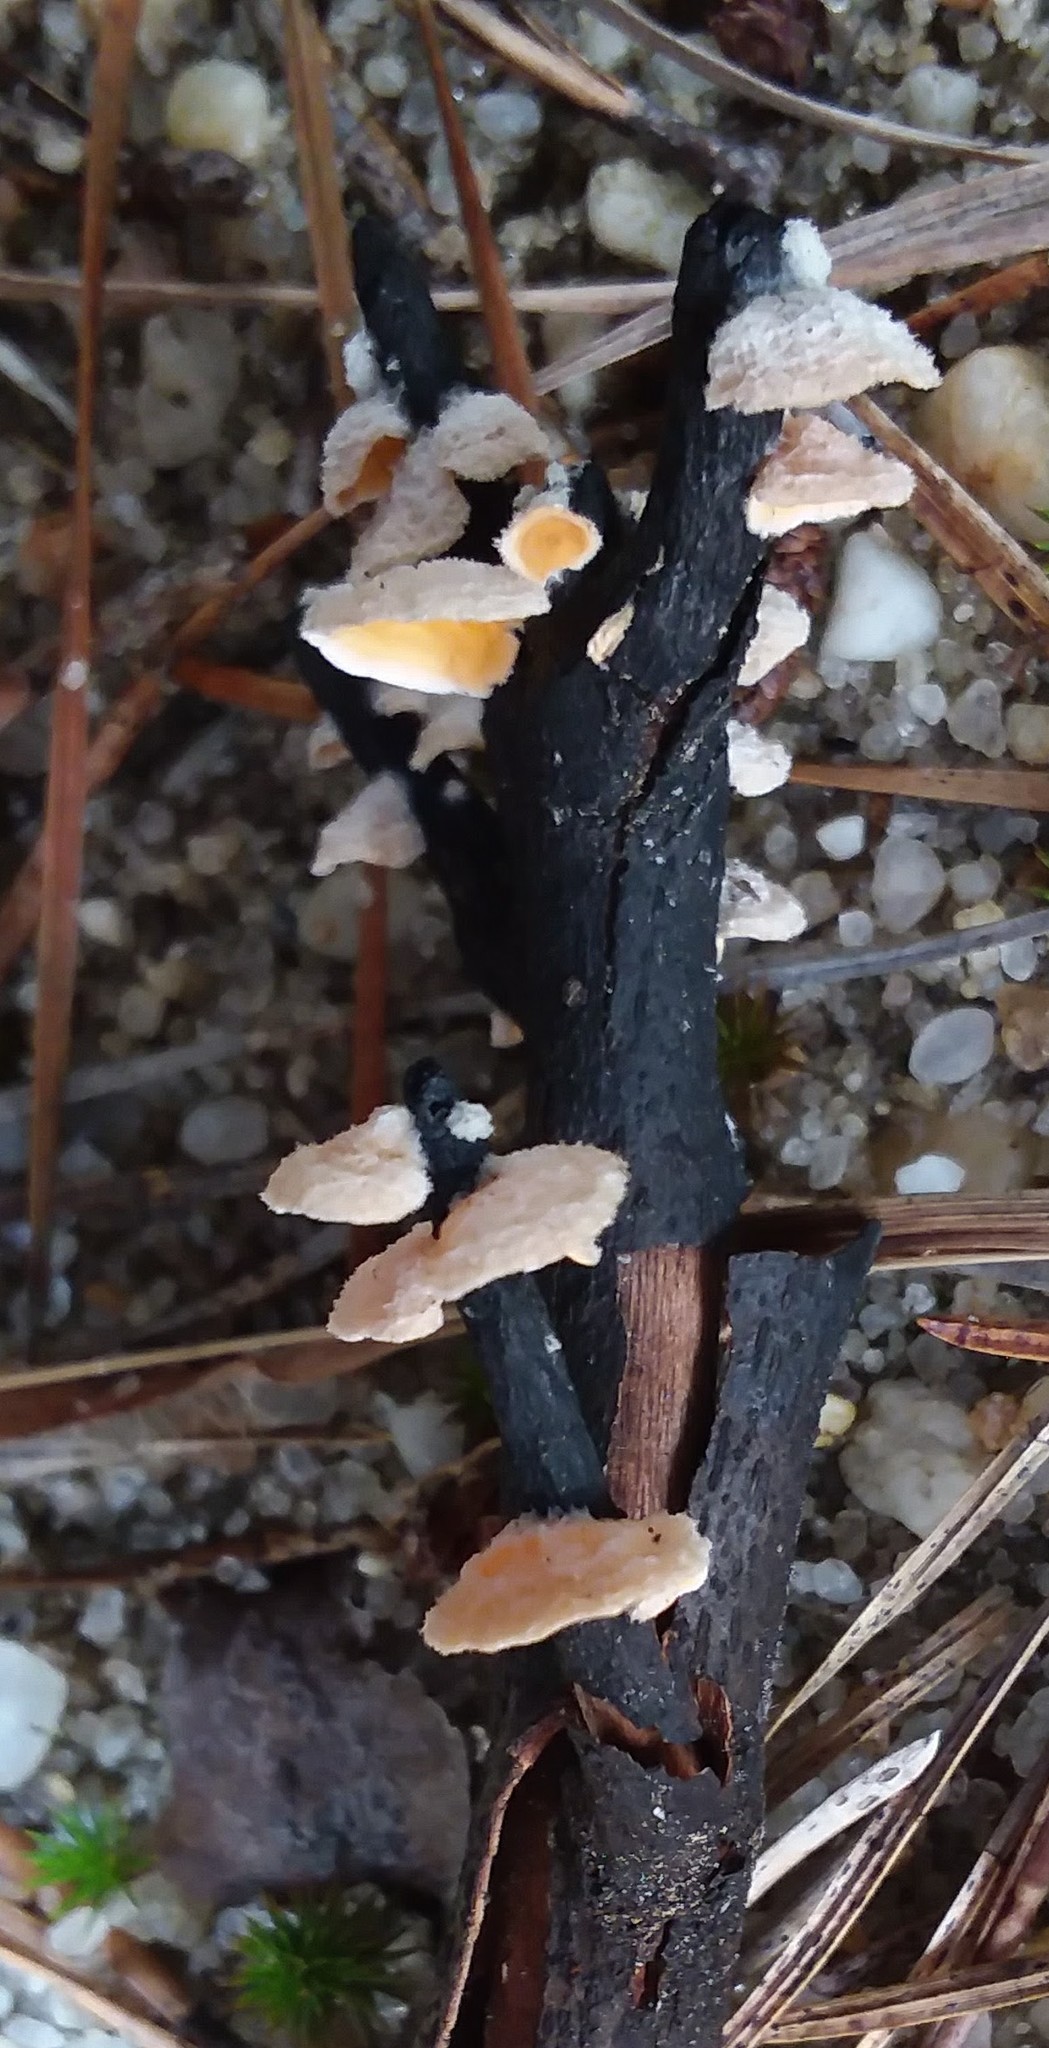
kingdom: Fungi
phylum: Basidiomycota
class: Agaricomycetes
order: Russulales
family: Stereaceae
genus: Stereum
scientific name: Stereum ochraceoflavum
